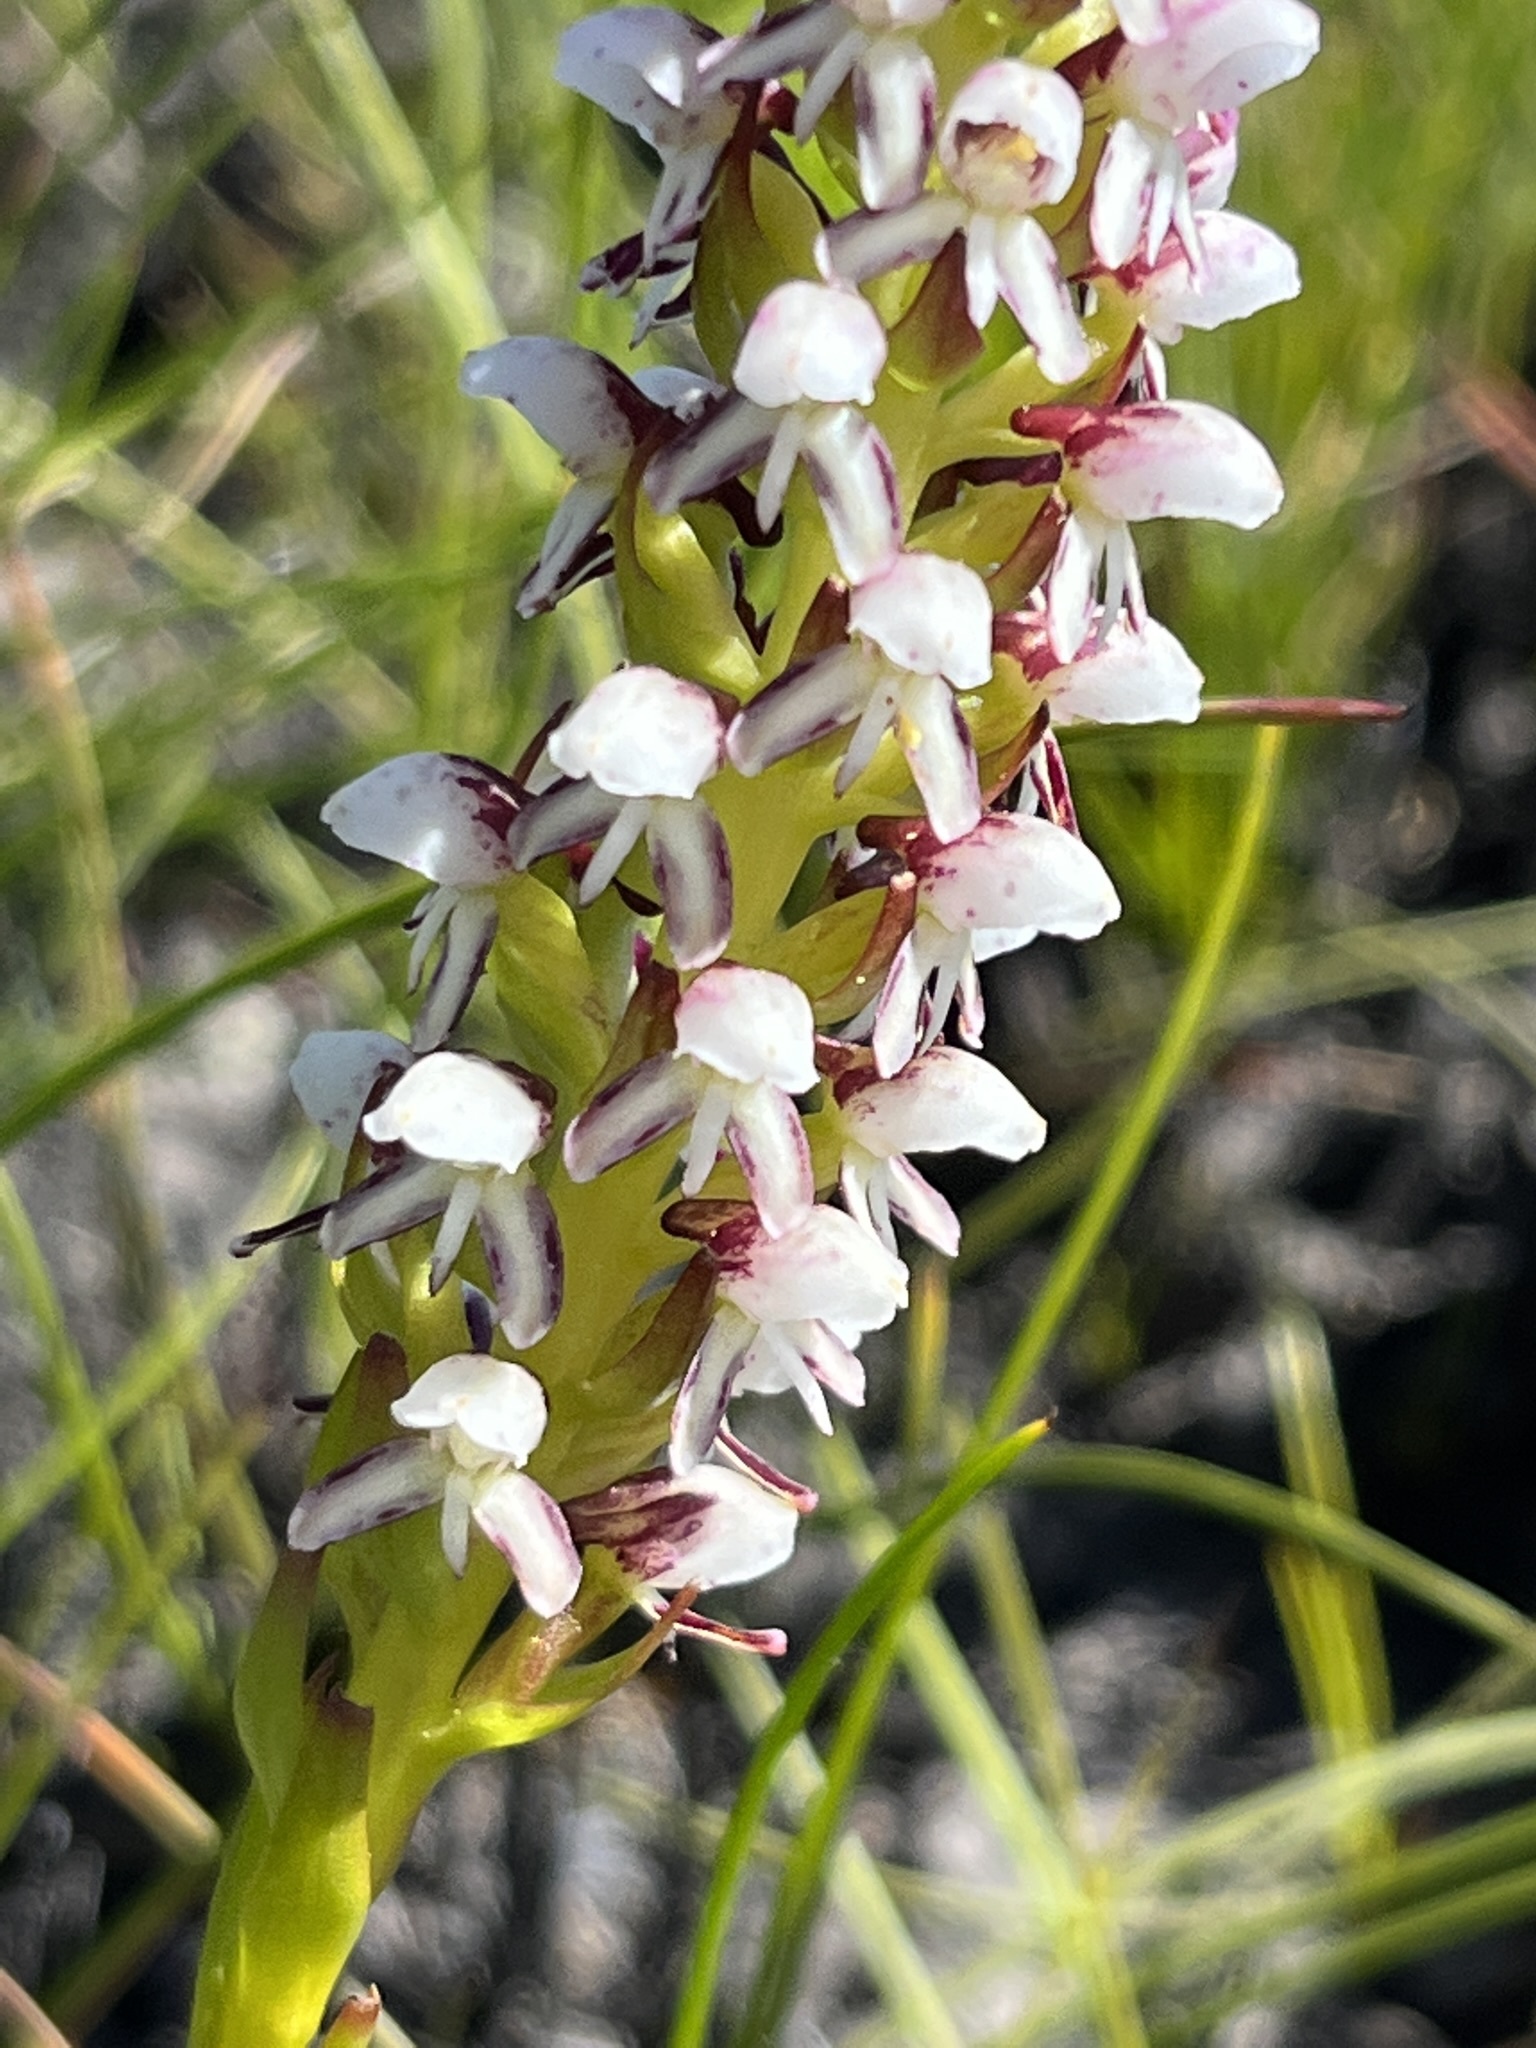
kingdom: Plantae
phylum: Tracheophyta
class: Liliopsida
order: Asparagales
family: Orchidaceae
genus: Disa
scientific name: Disa obtusa
